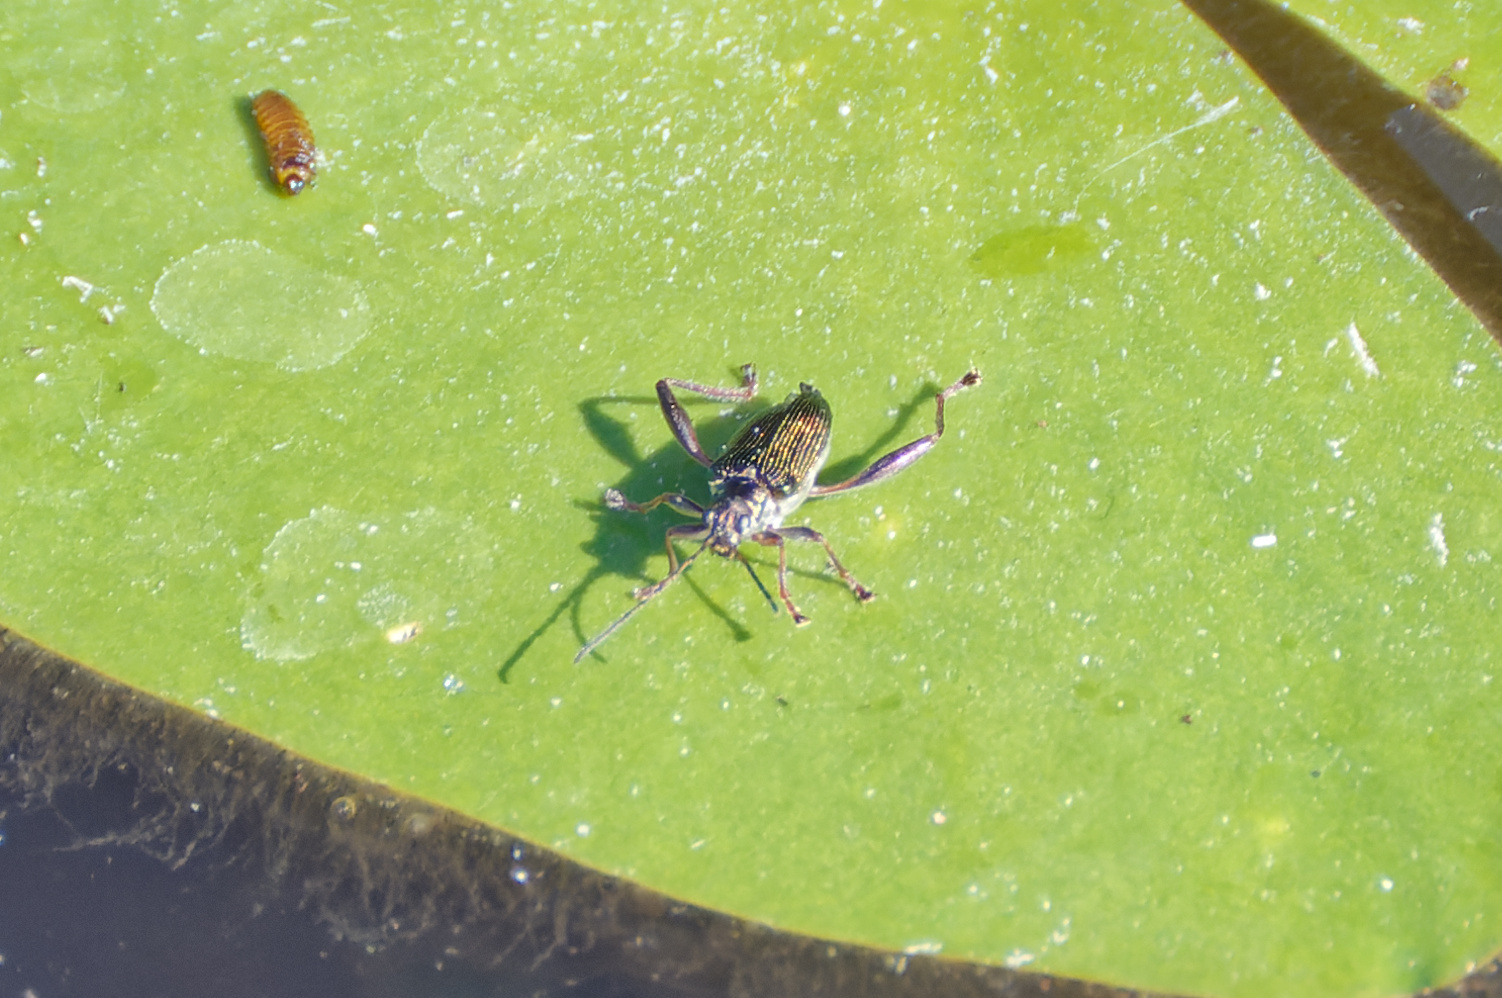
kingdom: Animalia
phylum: Arthropoda
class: Insecta
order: Coleoptera
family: Chrysomelidae
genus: Donacia
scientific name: Donacia crassipes
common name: Water-lily reed beetle
